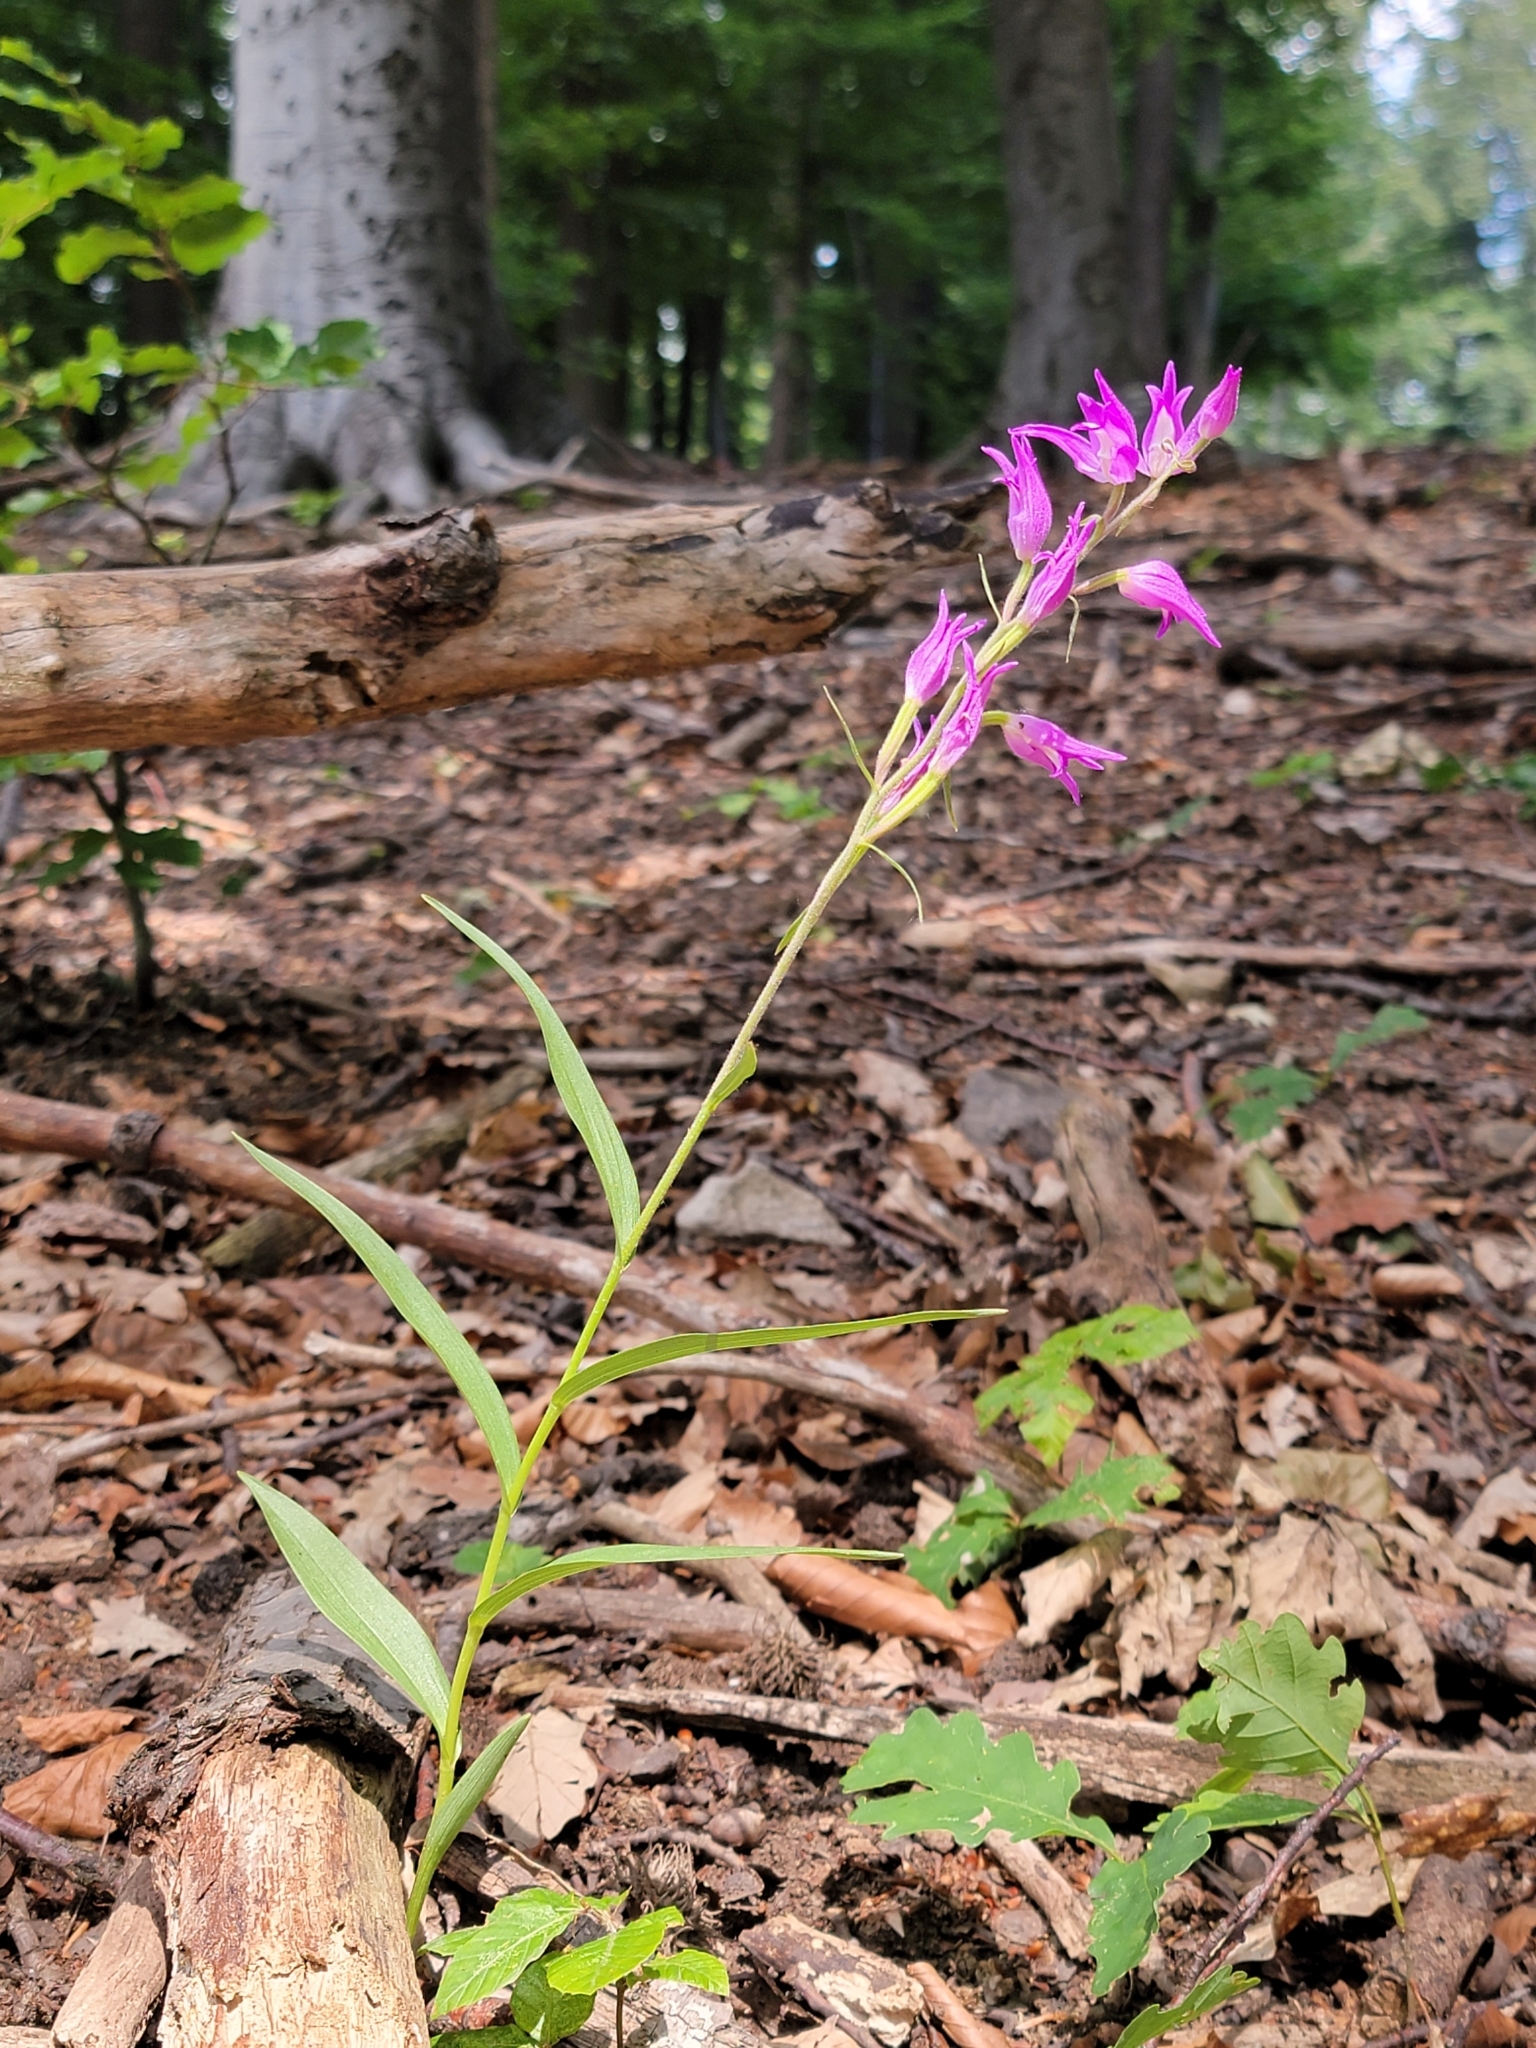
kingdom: Plantae
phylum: Tracheophyta
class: Liliopsida
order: Asparagales
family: Orchidaceae
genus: Cephalanthera
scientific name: Cephalanthera rubra
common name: Red helleborine
